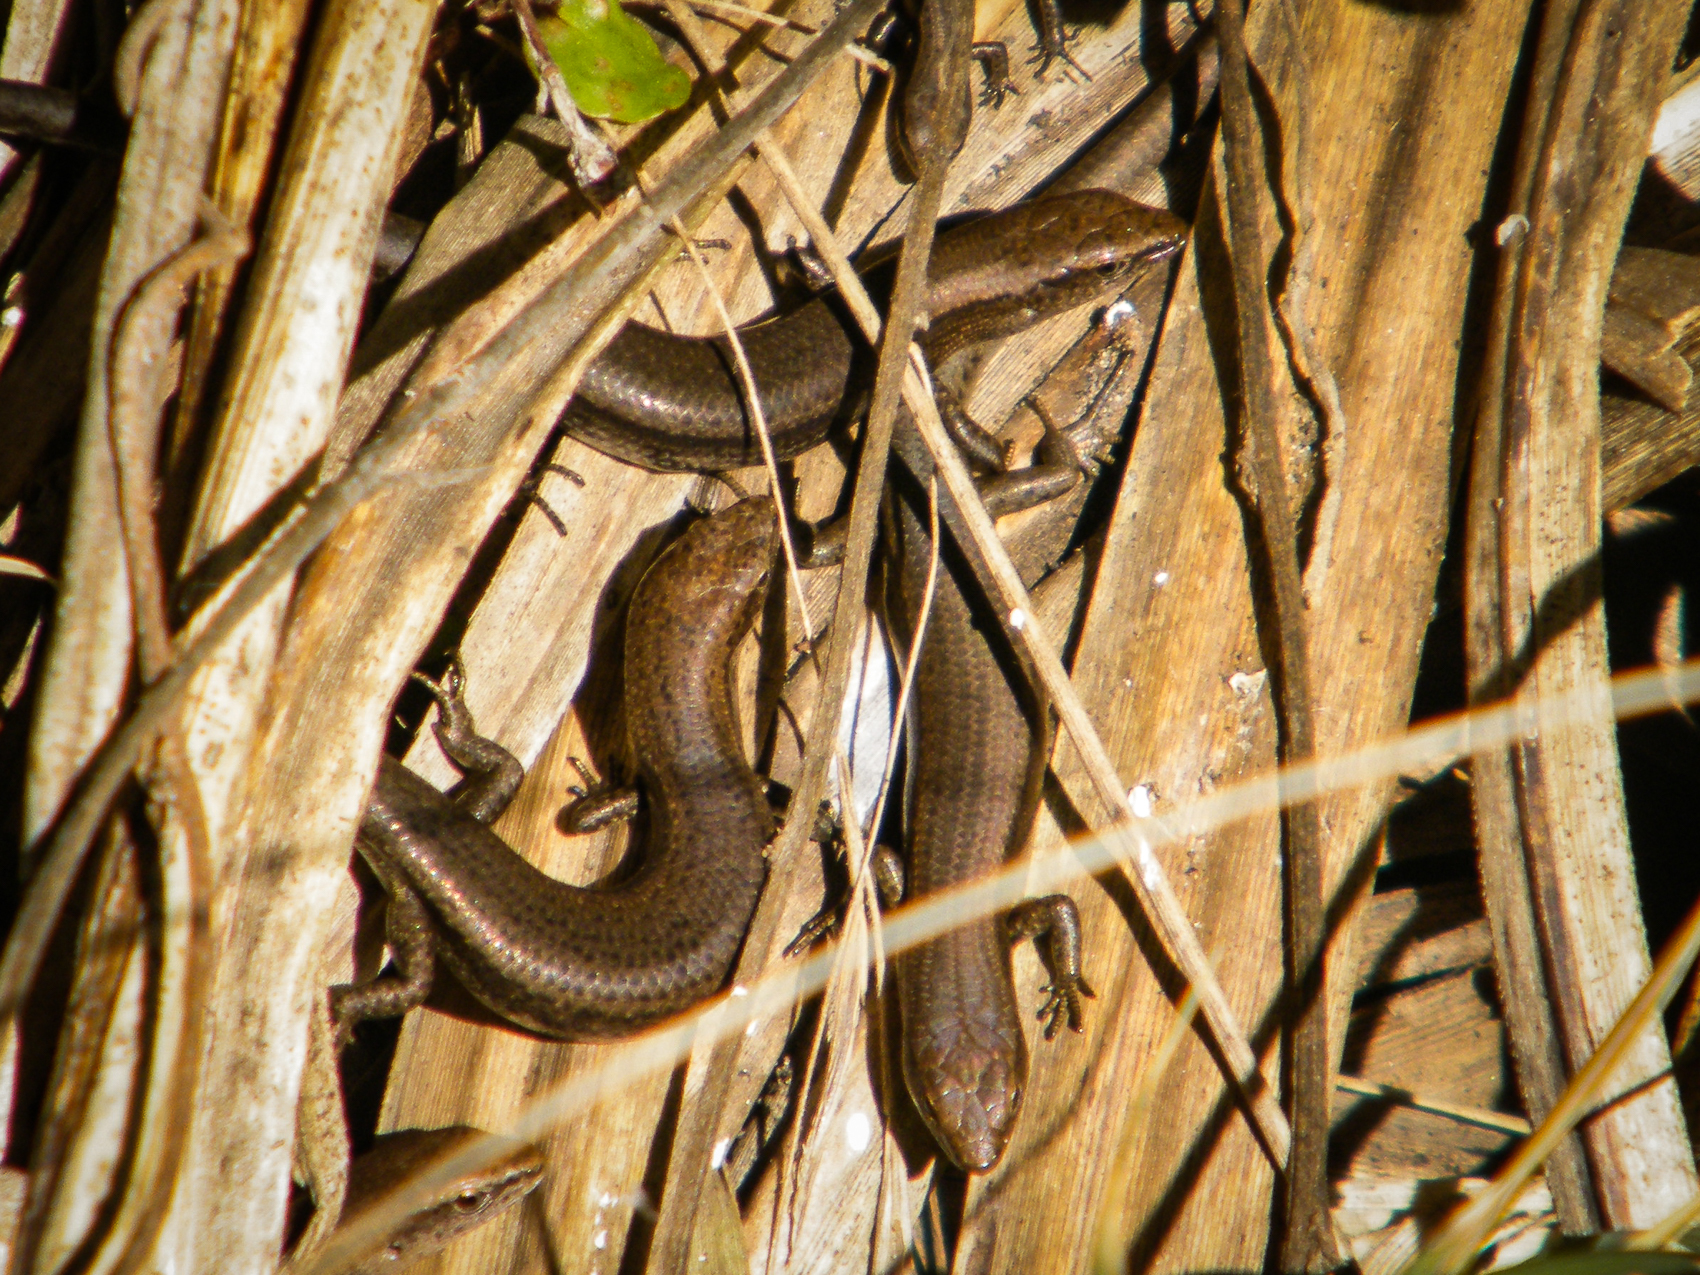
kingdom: Animalia
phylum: Chordata
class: Squamata
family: Scincidae
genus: Lampropholis
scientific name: Lampropholis delicata
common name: Plague skink
